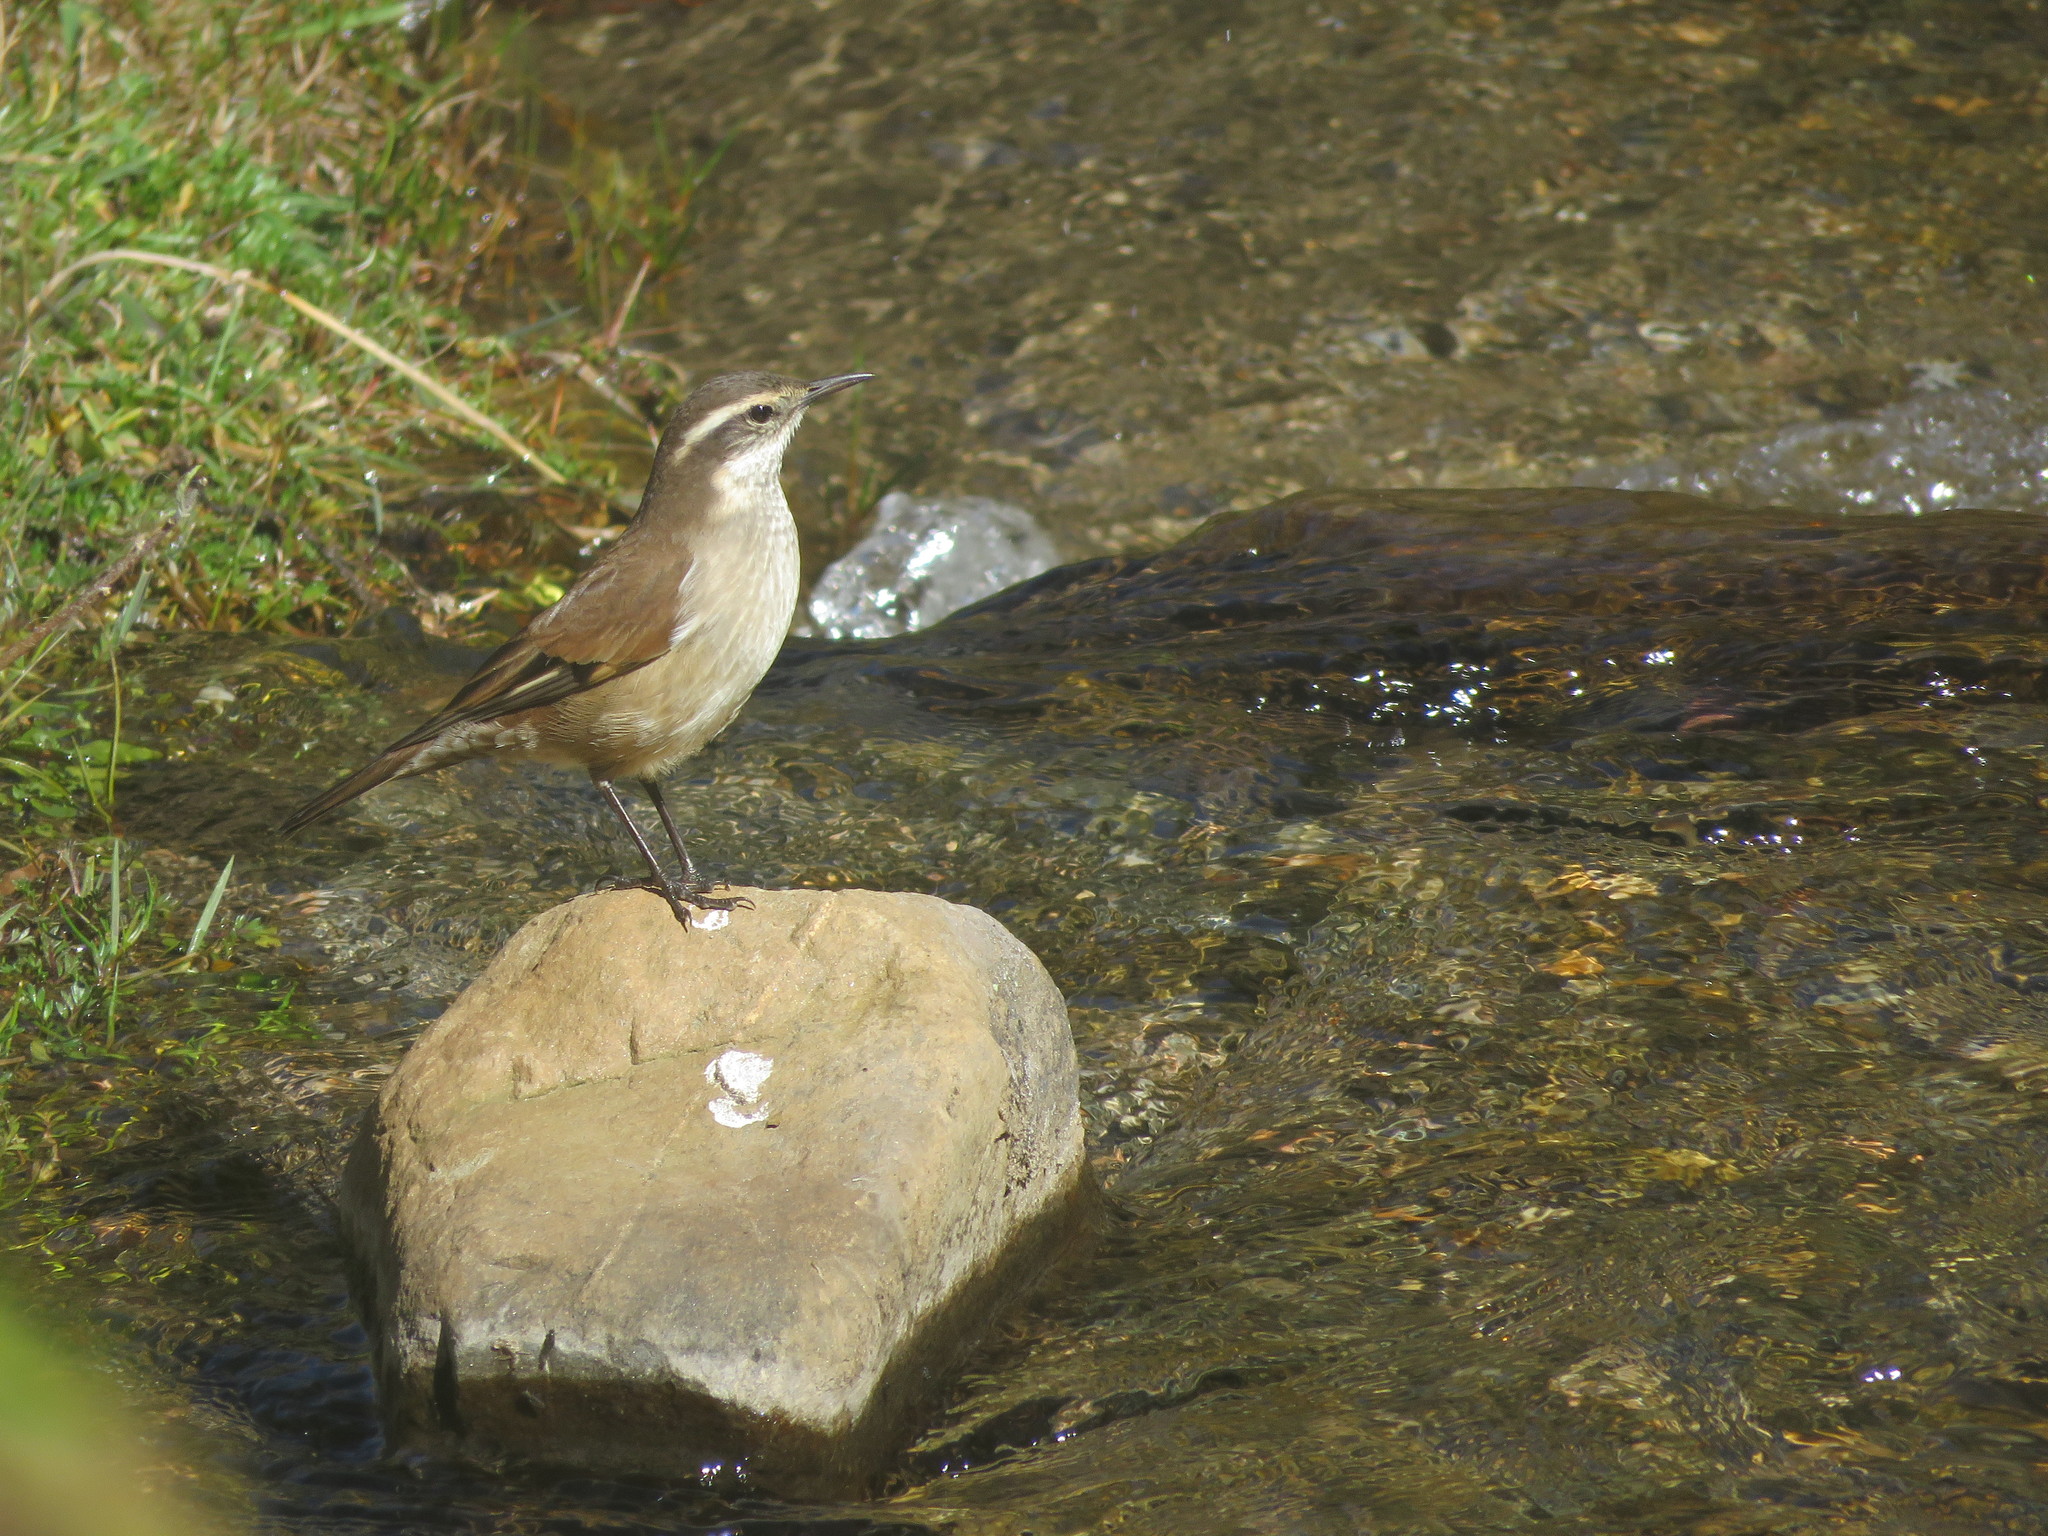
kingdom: Animalia
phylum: Chordata
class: Aves
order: Passeriformes
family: Furnariidae
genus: Cinclodes
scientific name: Cinclodes fuscus
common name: Buff-winged cinclodes
